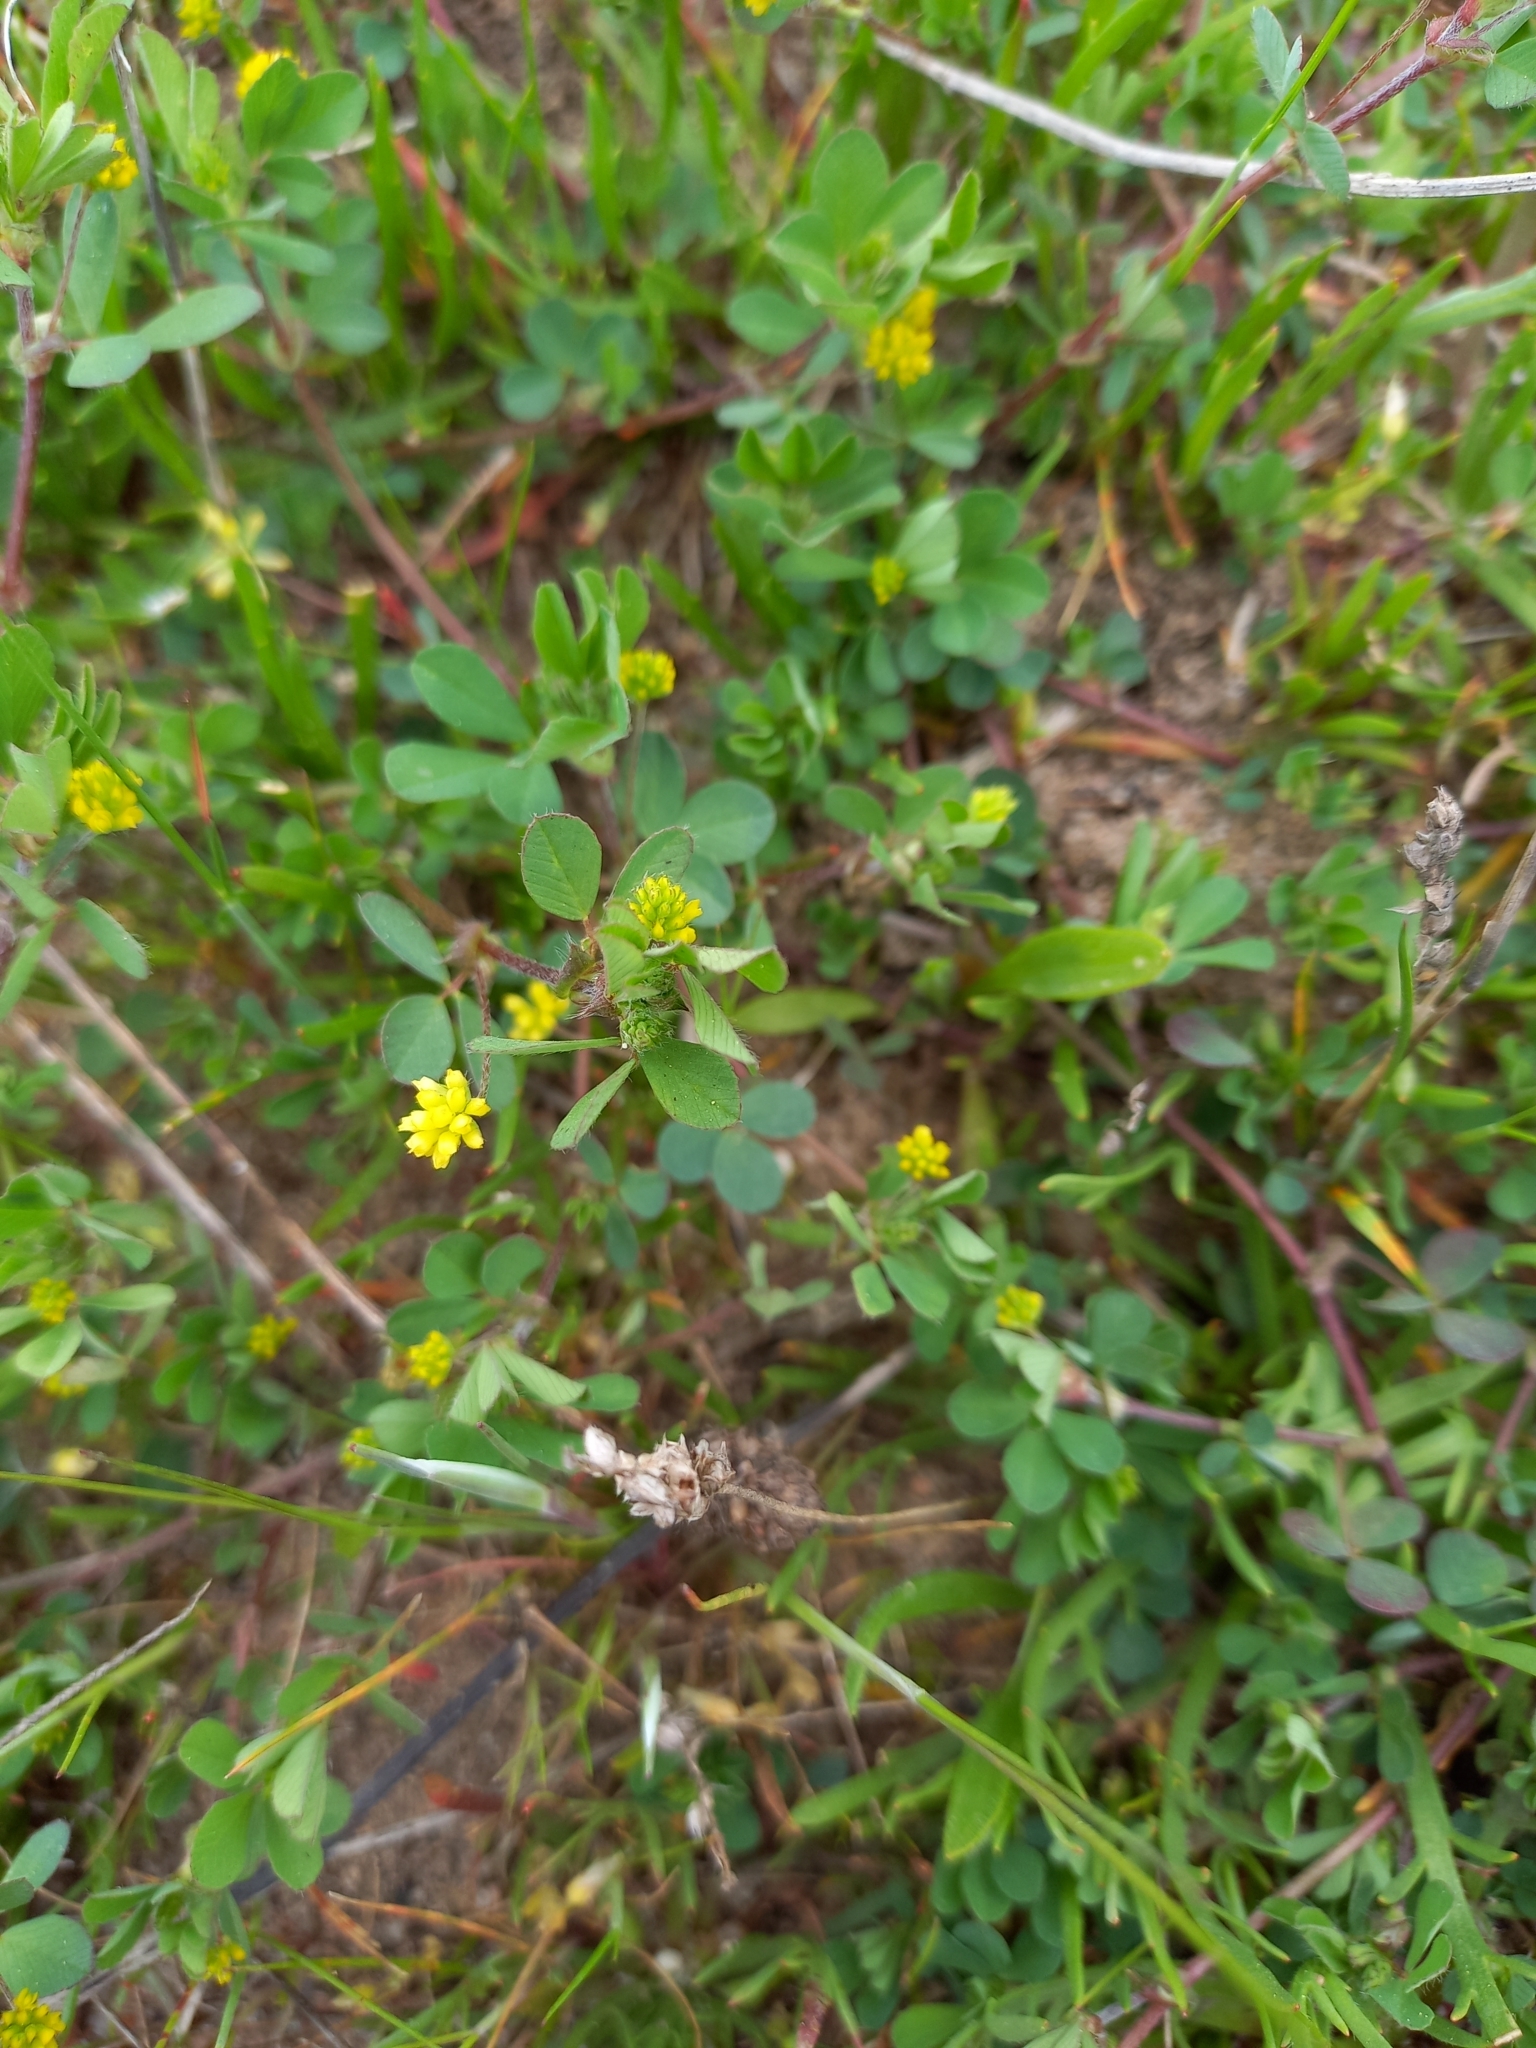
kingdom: Plantae
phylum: Tracheophyta
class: Magnoliopsida
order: Fabales
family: Fabaceae
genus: Medicago
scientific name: Medicago lupulina
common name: Black medick
